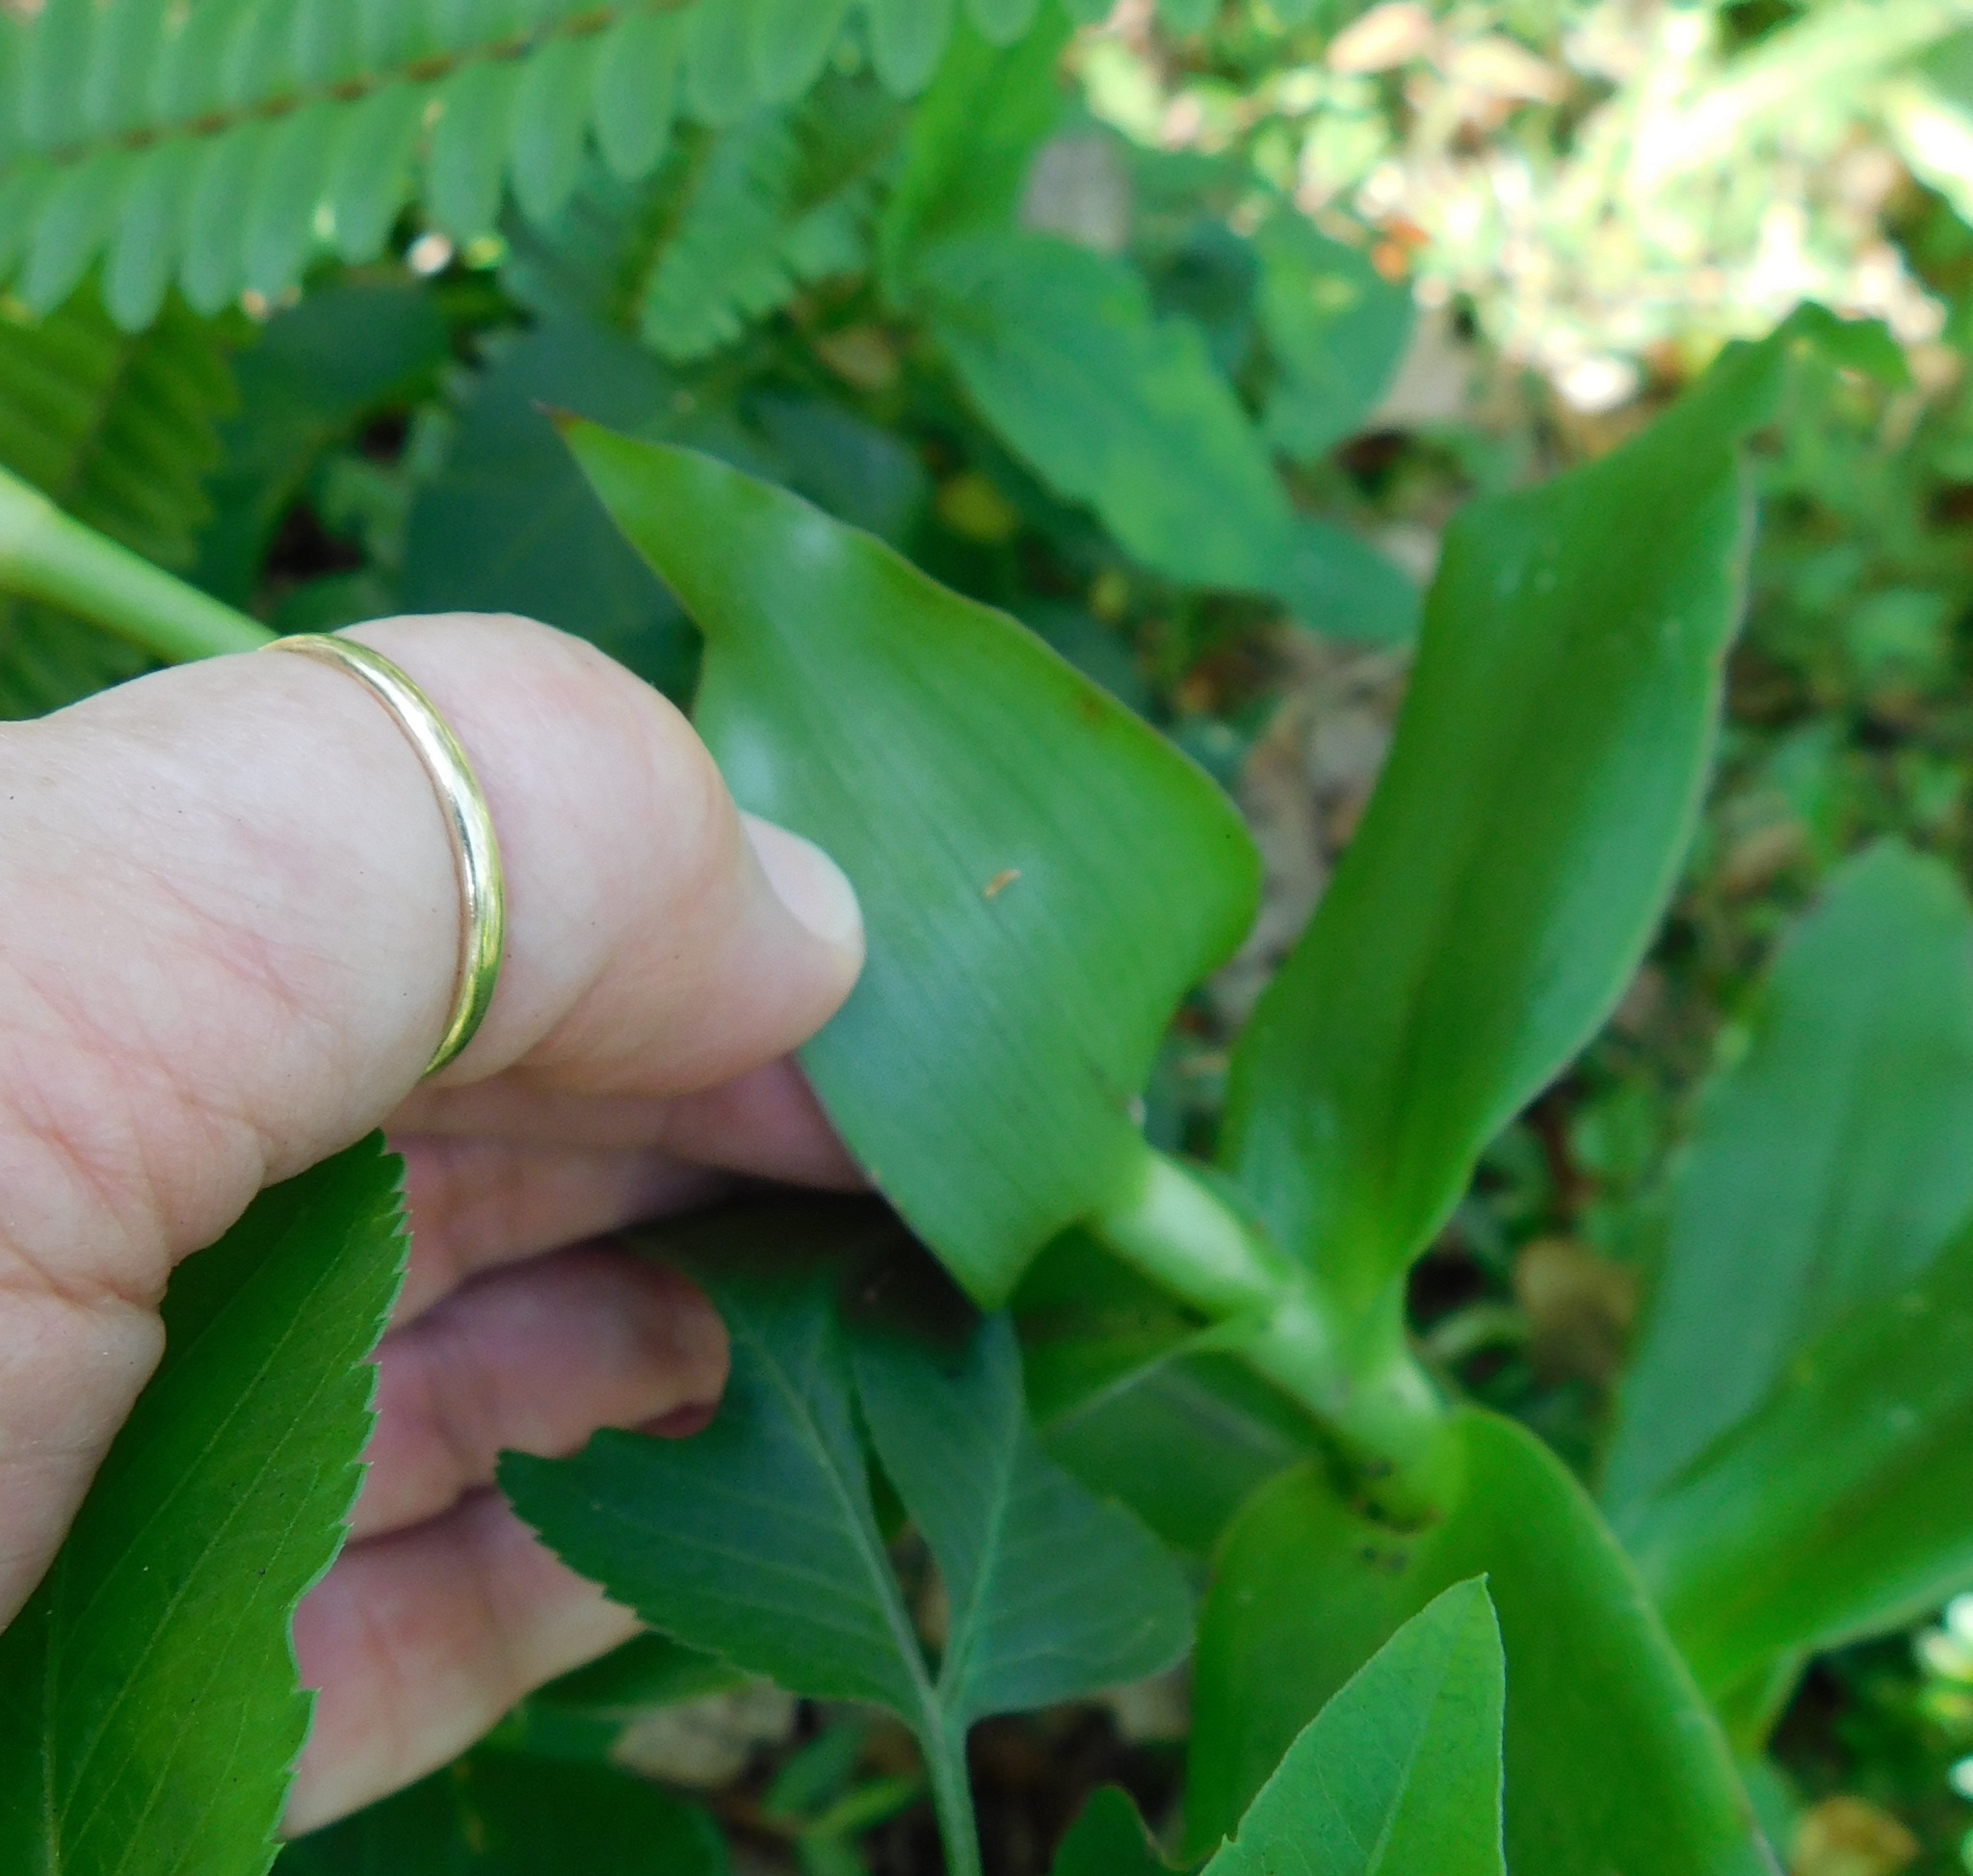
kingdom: Plantae
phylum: Tracheophyta
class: Liliopsida
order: Commelinales
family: Commelinaceae
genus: Callisia
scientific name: Callisia fragrans
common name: Basketplant
